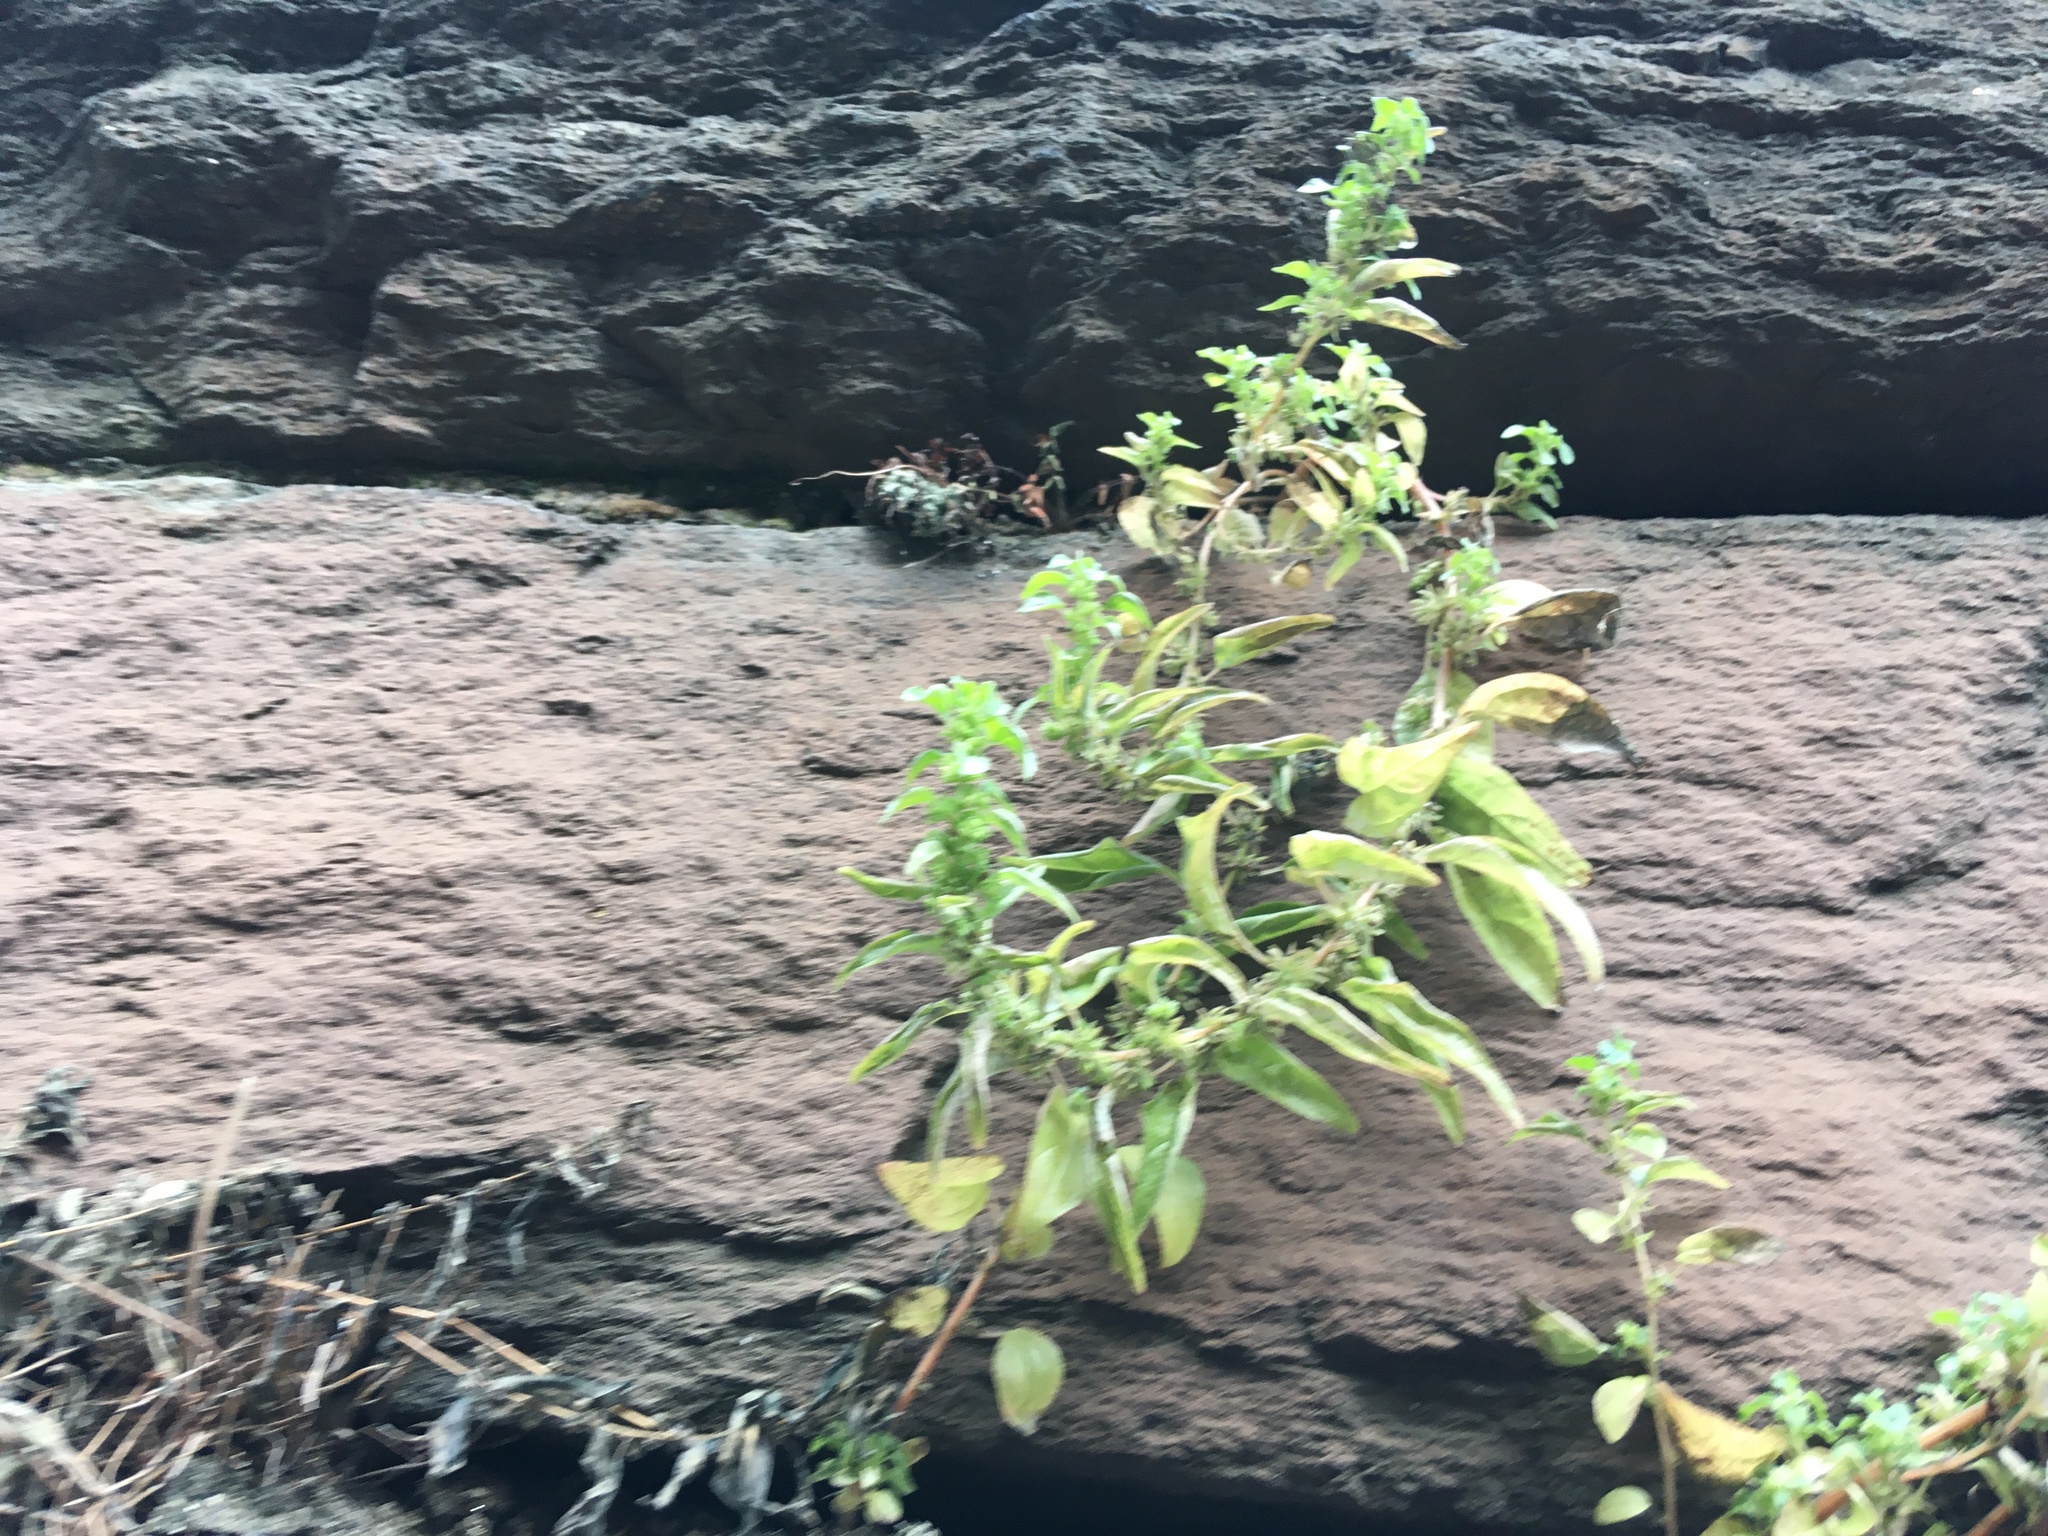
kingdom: Plantae
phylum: Tracheophyta
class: Magnoliopsida
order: Rosales
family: Urticaceae
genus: Parietaria
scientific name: Parietaria pensylvanica
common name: Pennsylvania pellitory
